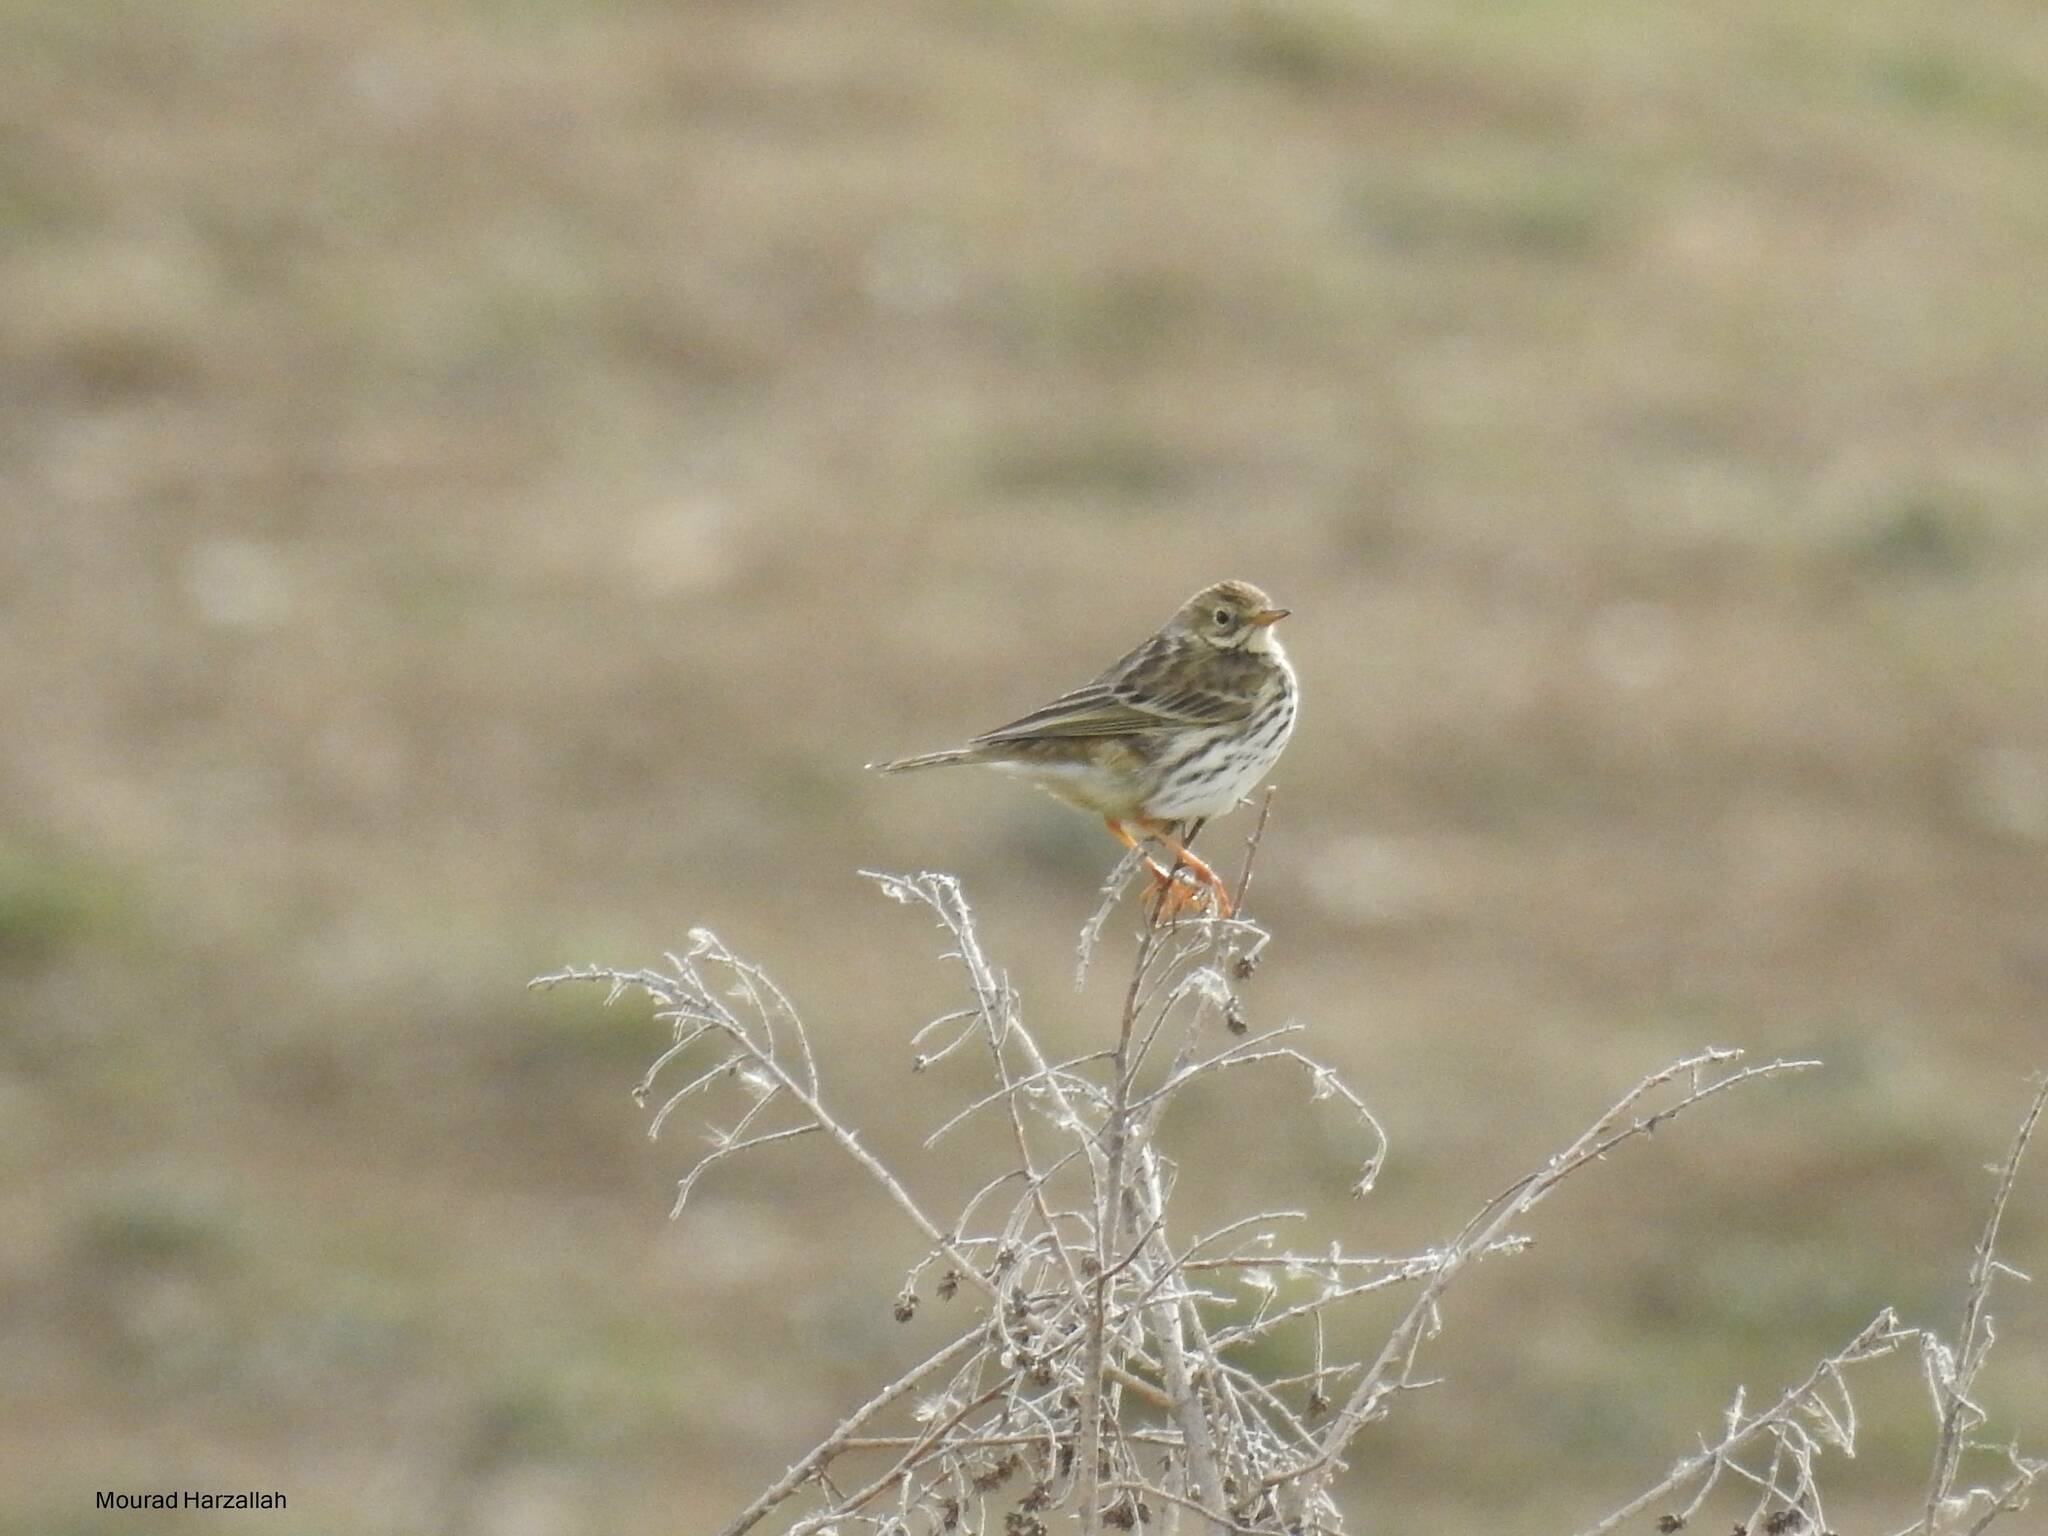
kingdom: Animalia
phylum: Chordata
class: Aves
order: Passeriformes
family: Motacillidae
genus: Anthus
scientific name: Anthus pratensis
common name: Meadow pipit
